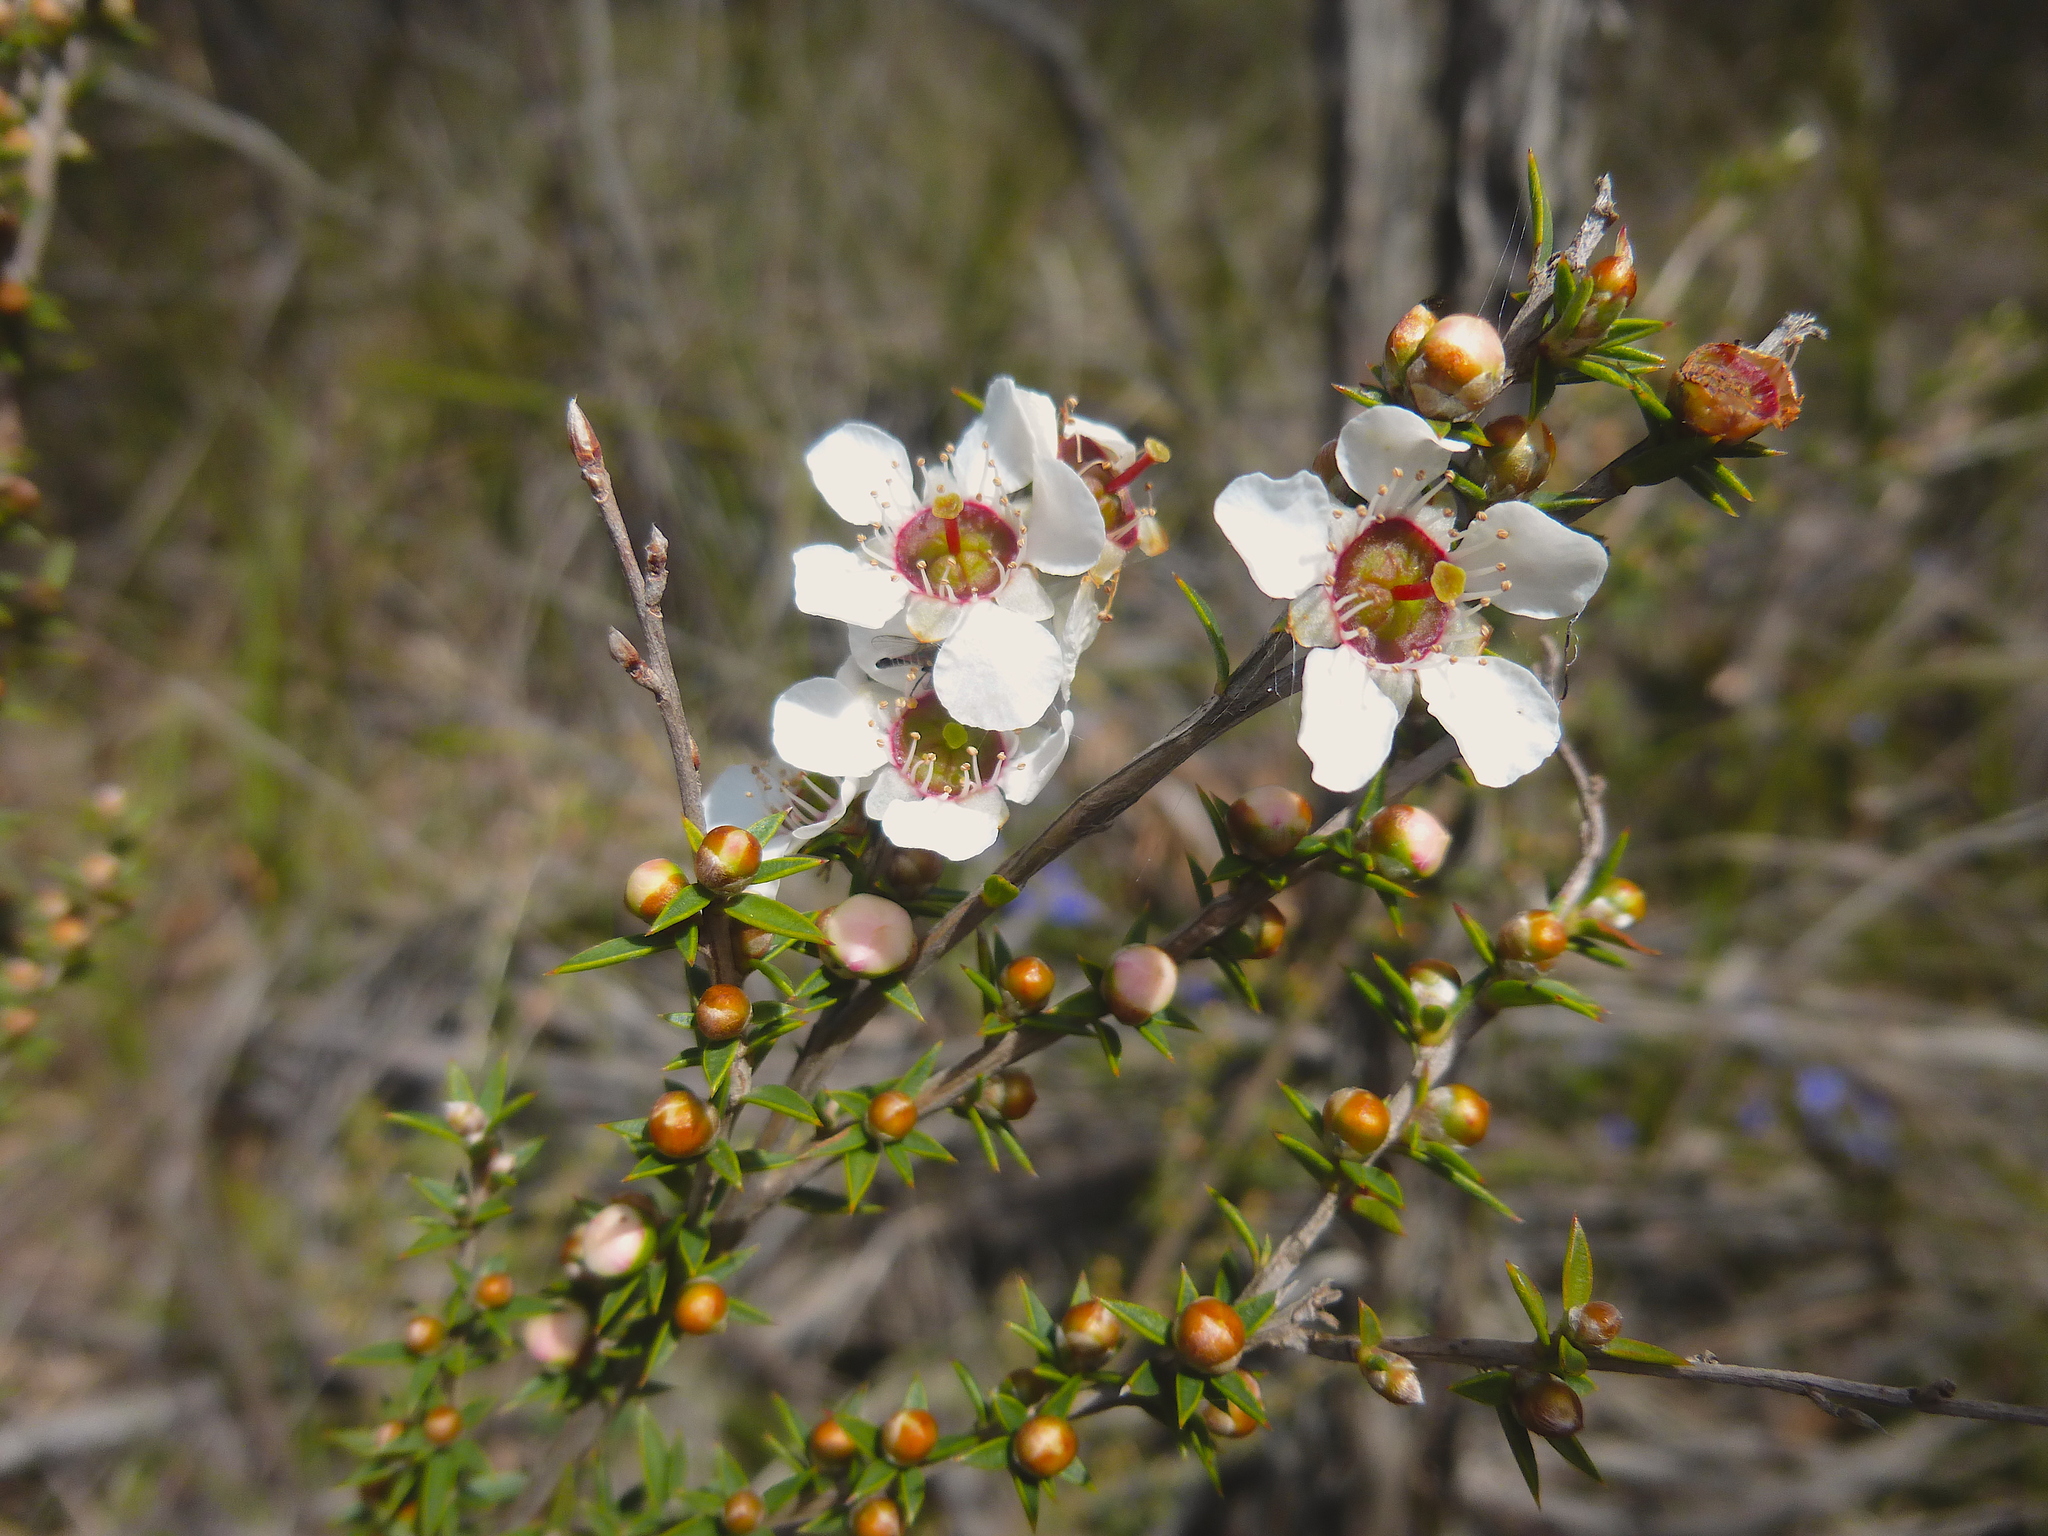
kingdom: Plantae
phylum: Tracheophyta
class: Magnoliopsida
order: Myrtales
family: Myrtaceae
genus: Leptospermum
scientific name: Leptospermum continentale
